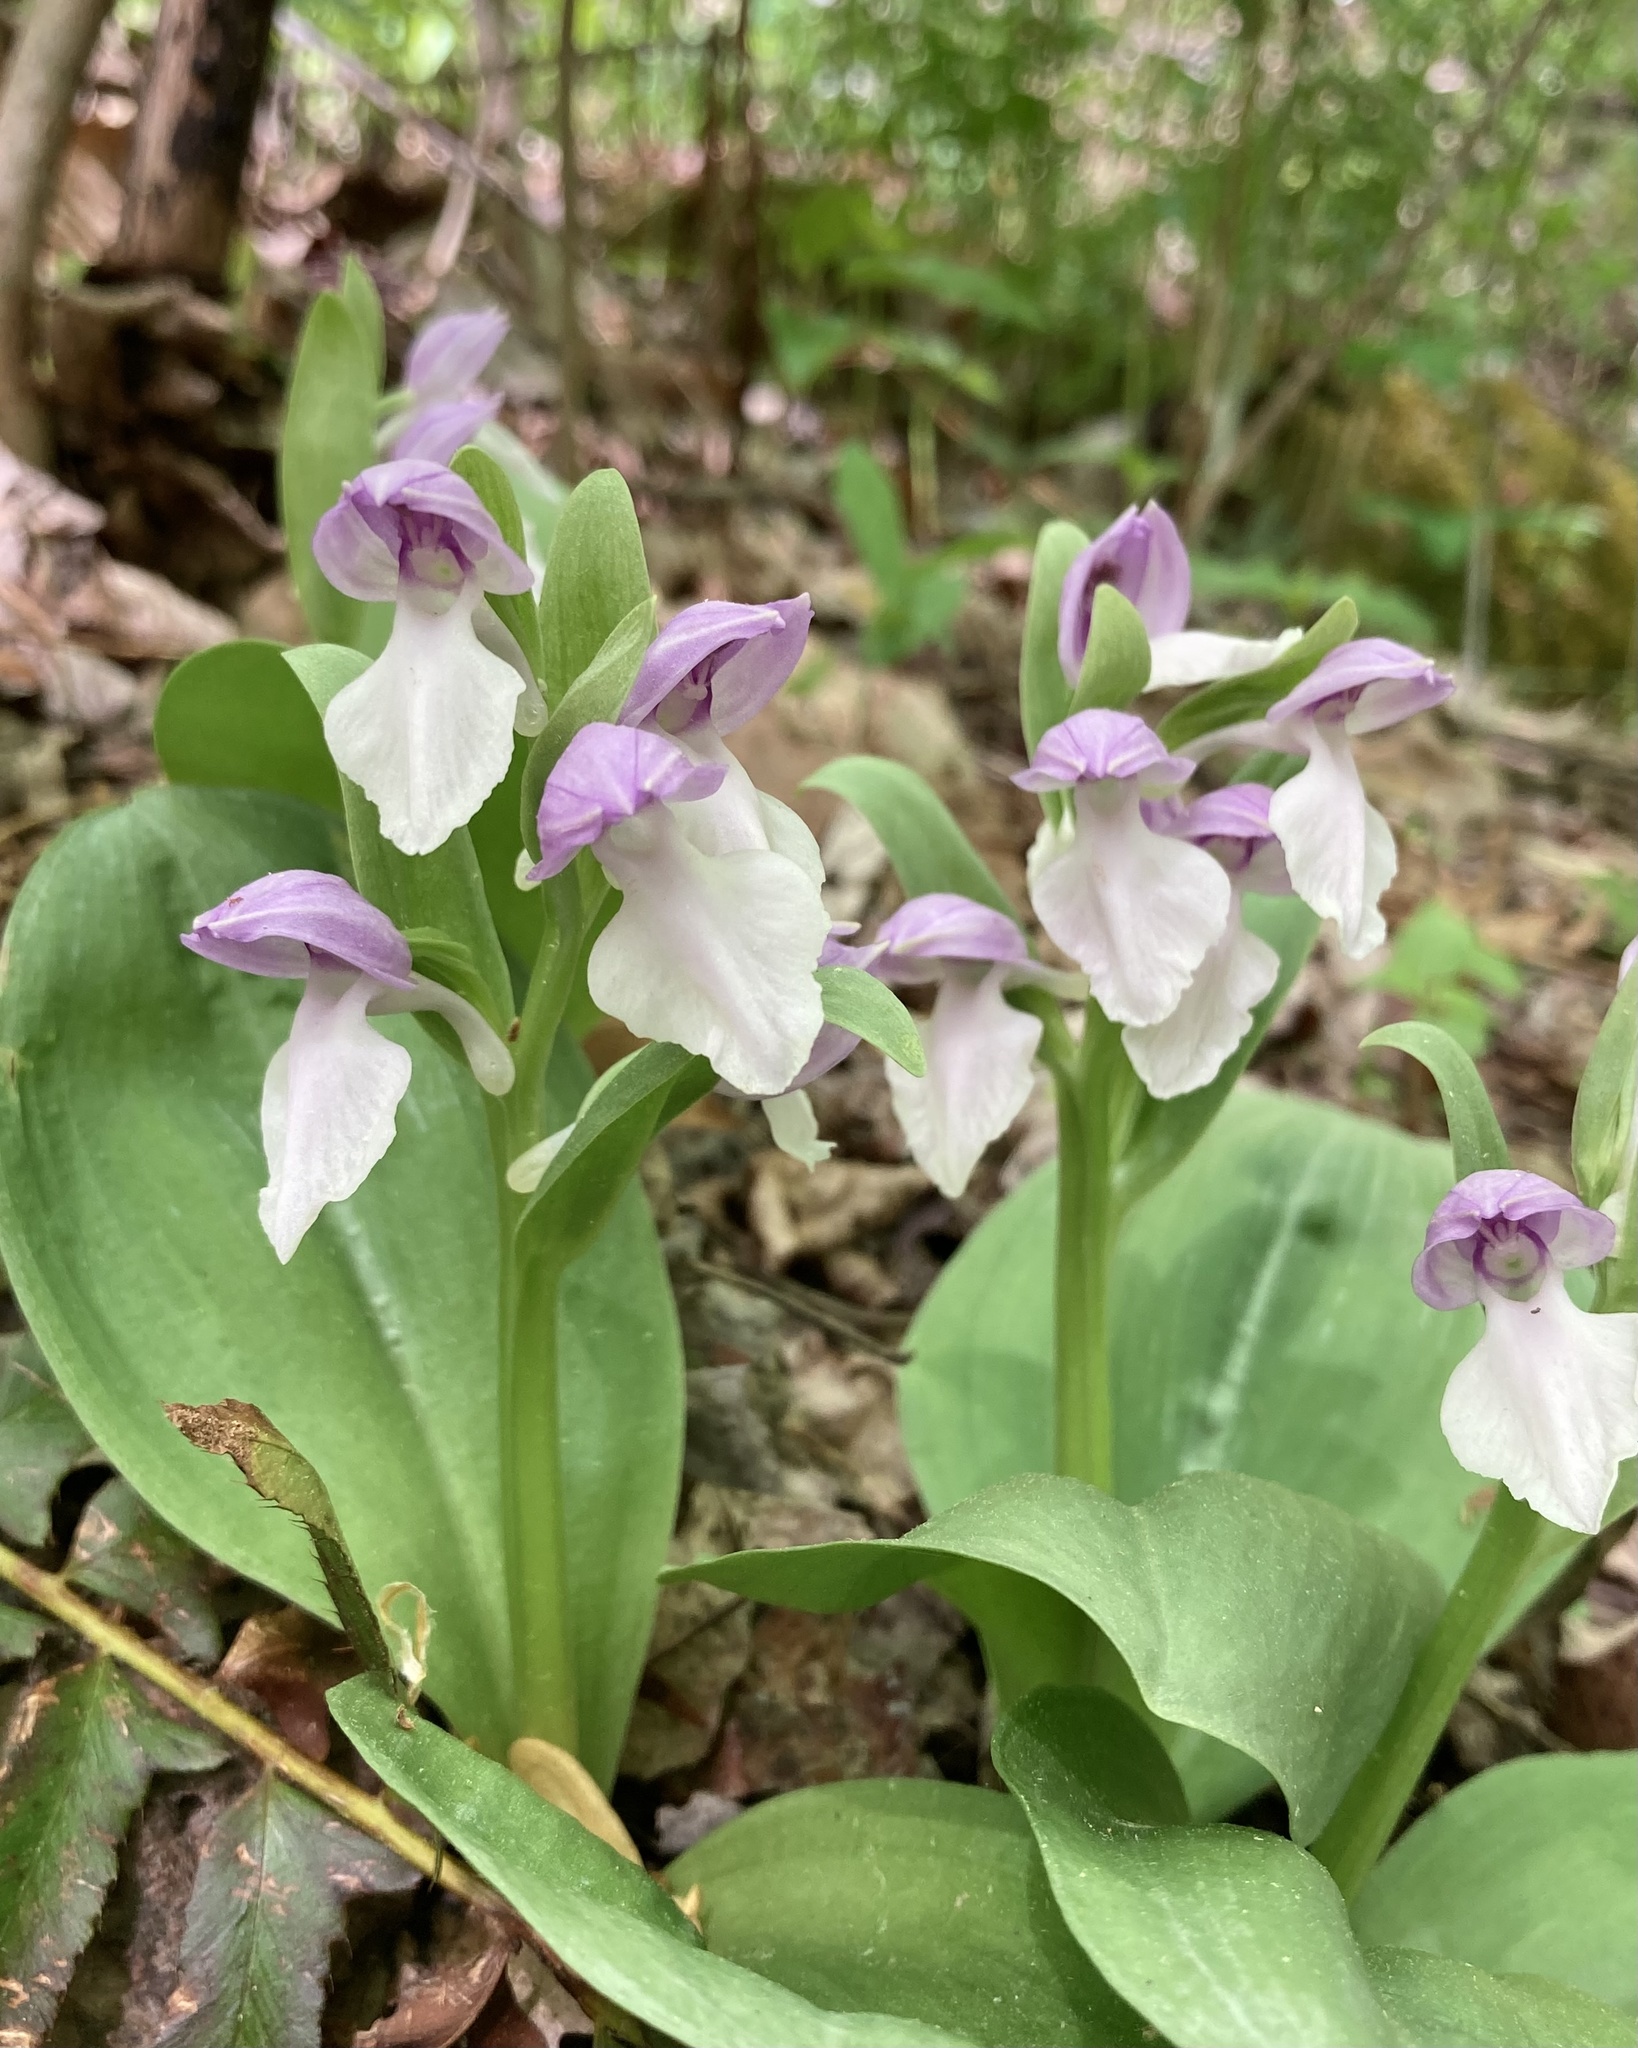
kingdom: Plantae
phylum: Tracheophyta
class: Liliopsida
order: Asparagales
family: Orchidaceae
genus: Galearis
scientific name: Galearis spectabilis
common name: Purple-hooded orchis
